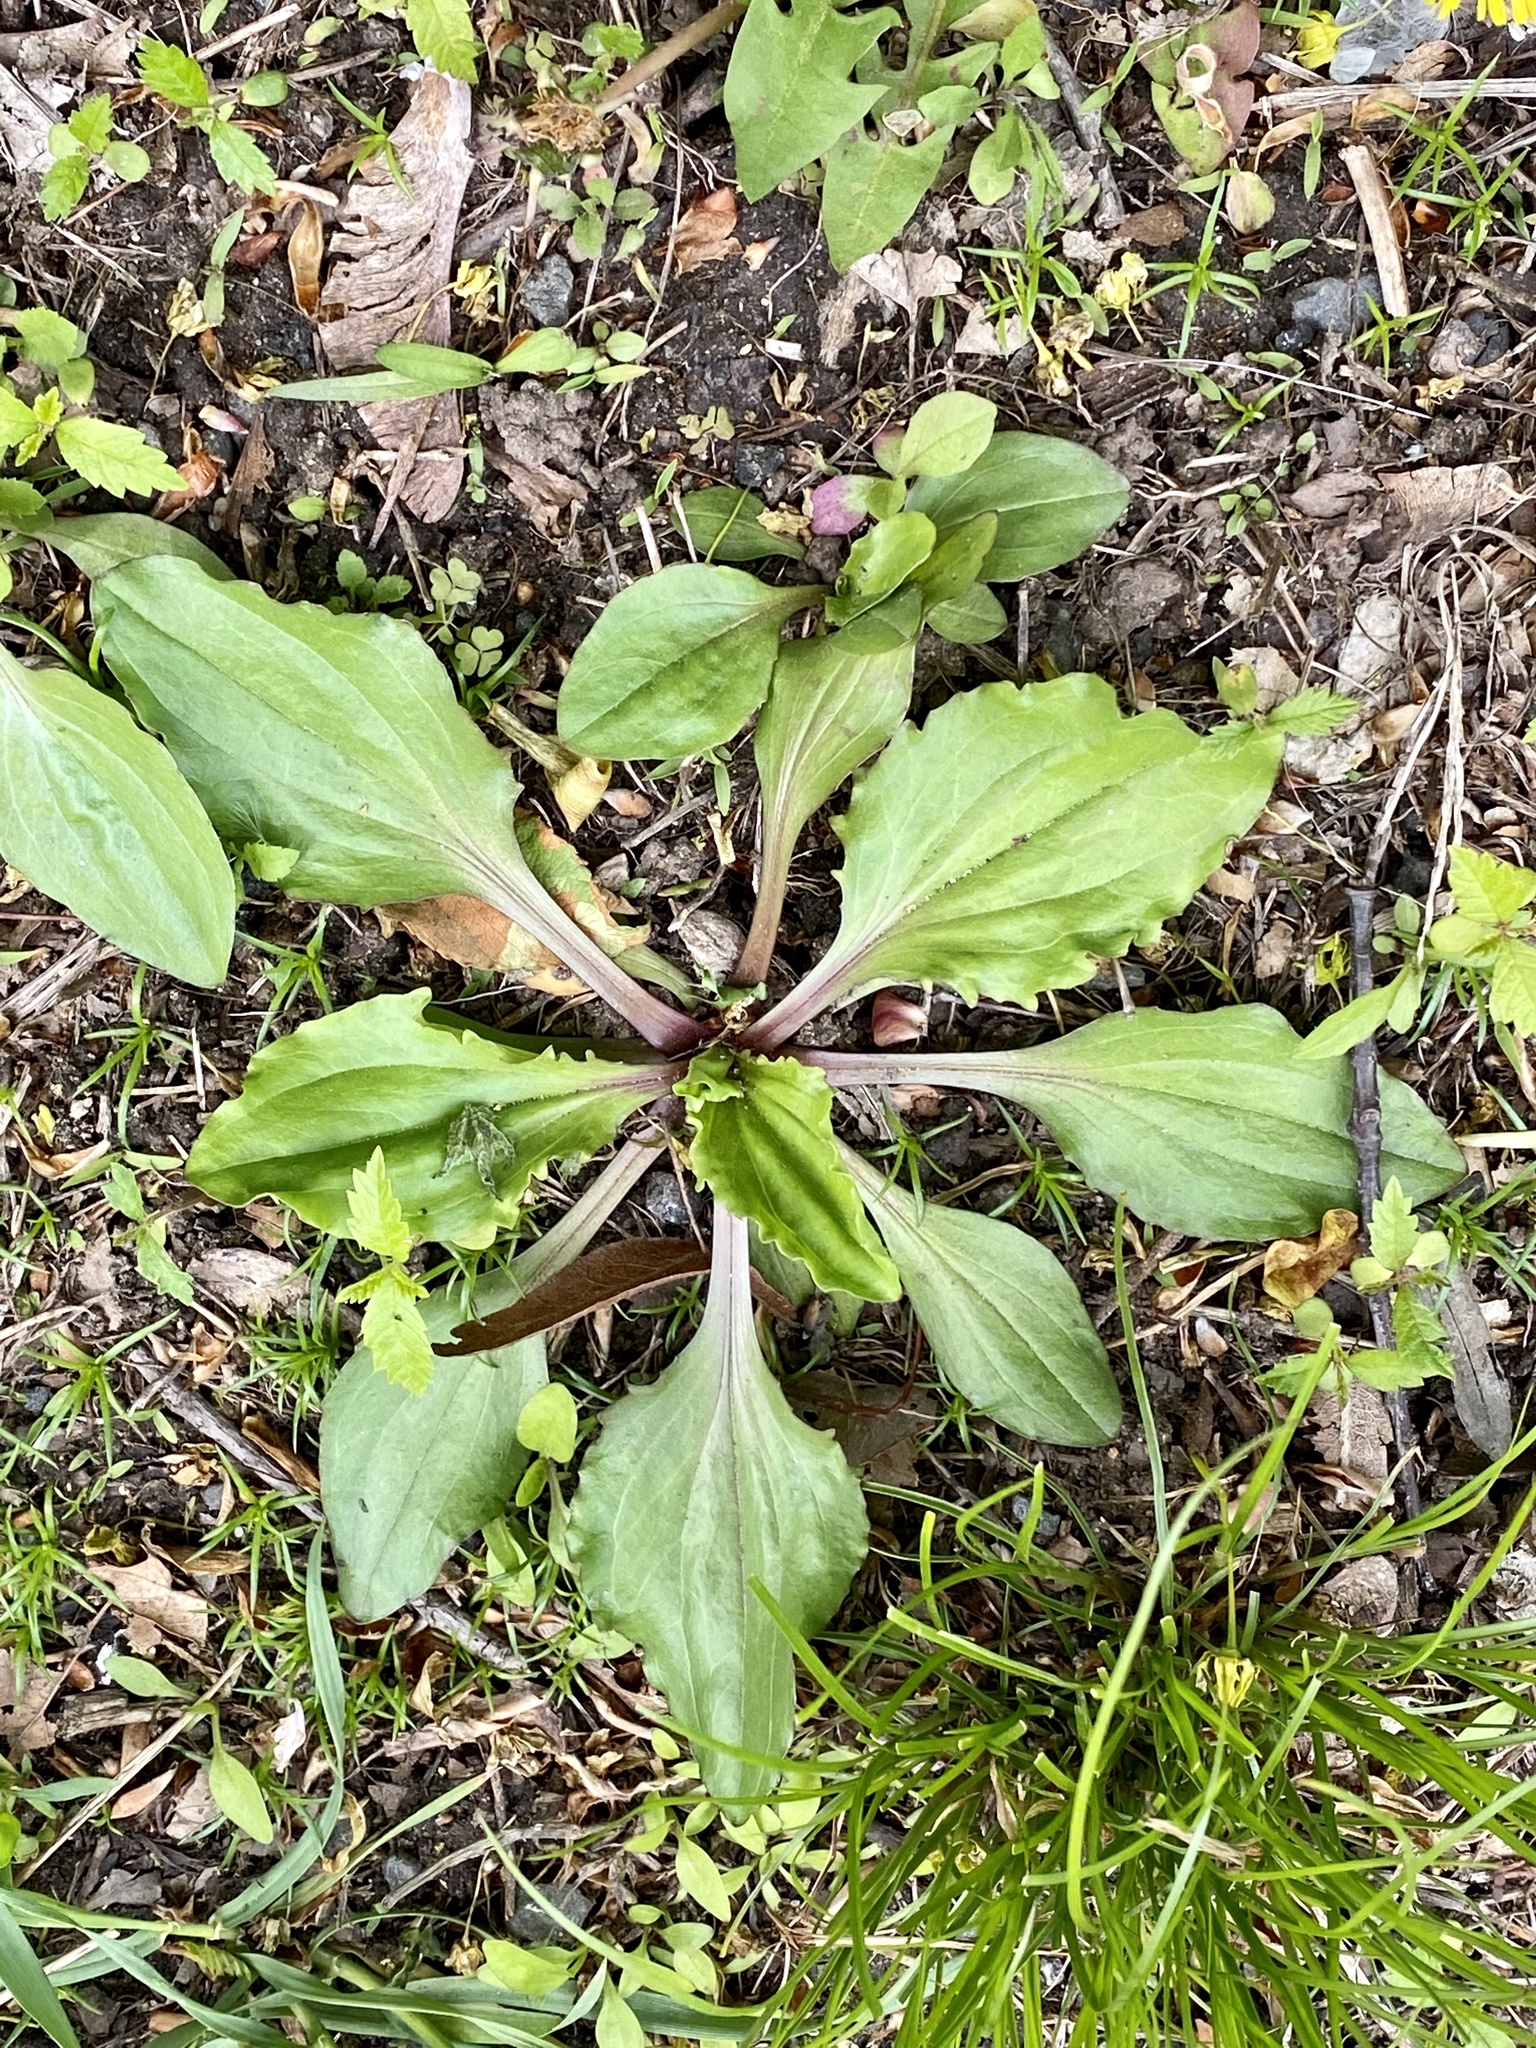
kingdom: Plantae
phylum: Tracheophyta
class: Magnoliopsida
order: Lamiales
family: Plantaginaceae
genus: Plantago
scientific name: Plantago rugelii
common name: American plantain
